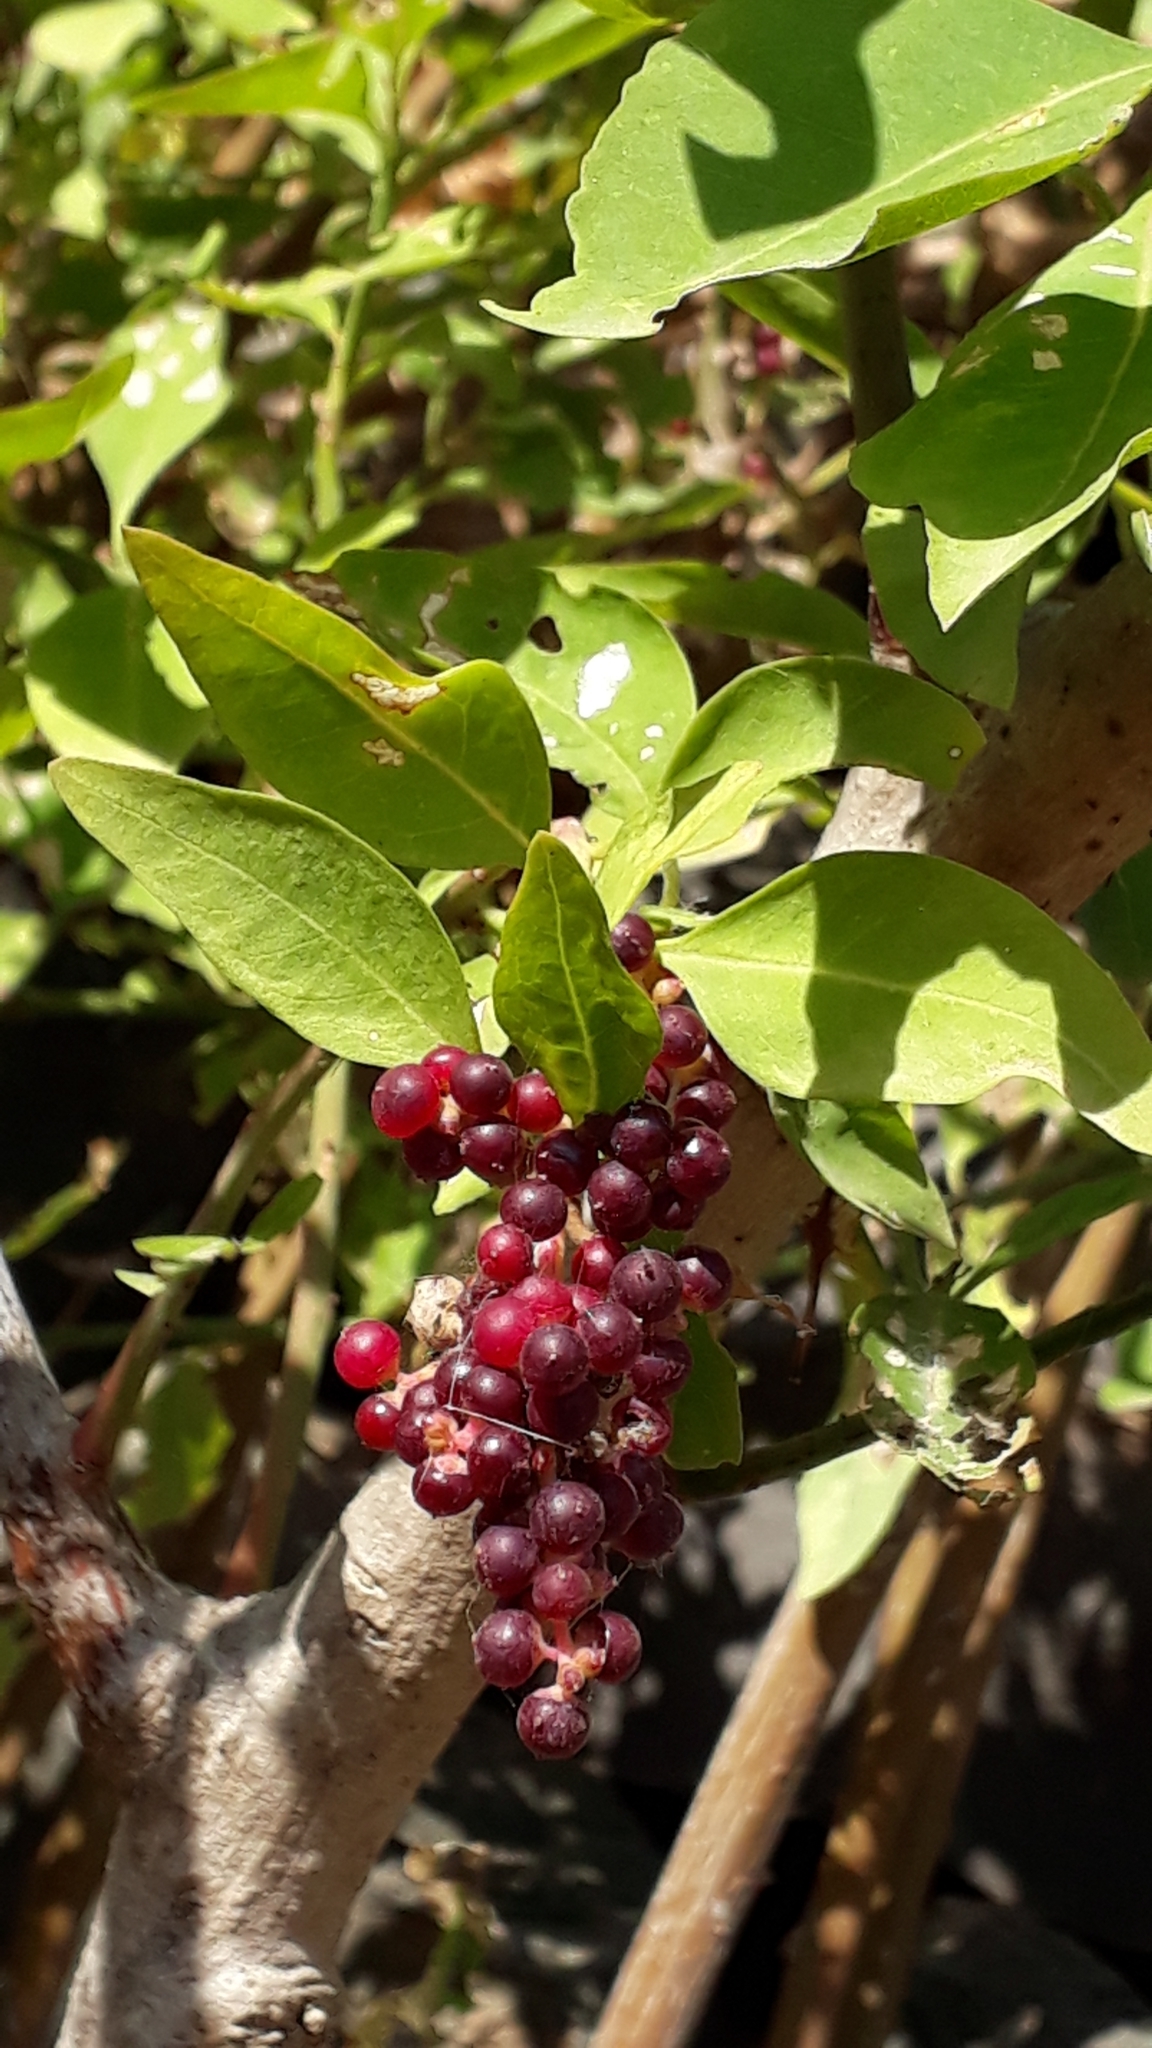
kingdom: Plantae
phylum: Tracheophyta
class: Magnoliopsida
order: Caryophyllales
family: Amaranthaceae
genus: Bosea
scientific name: Bosea yervamora
